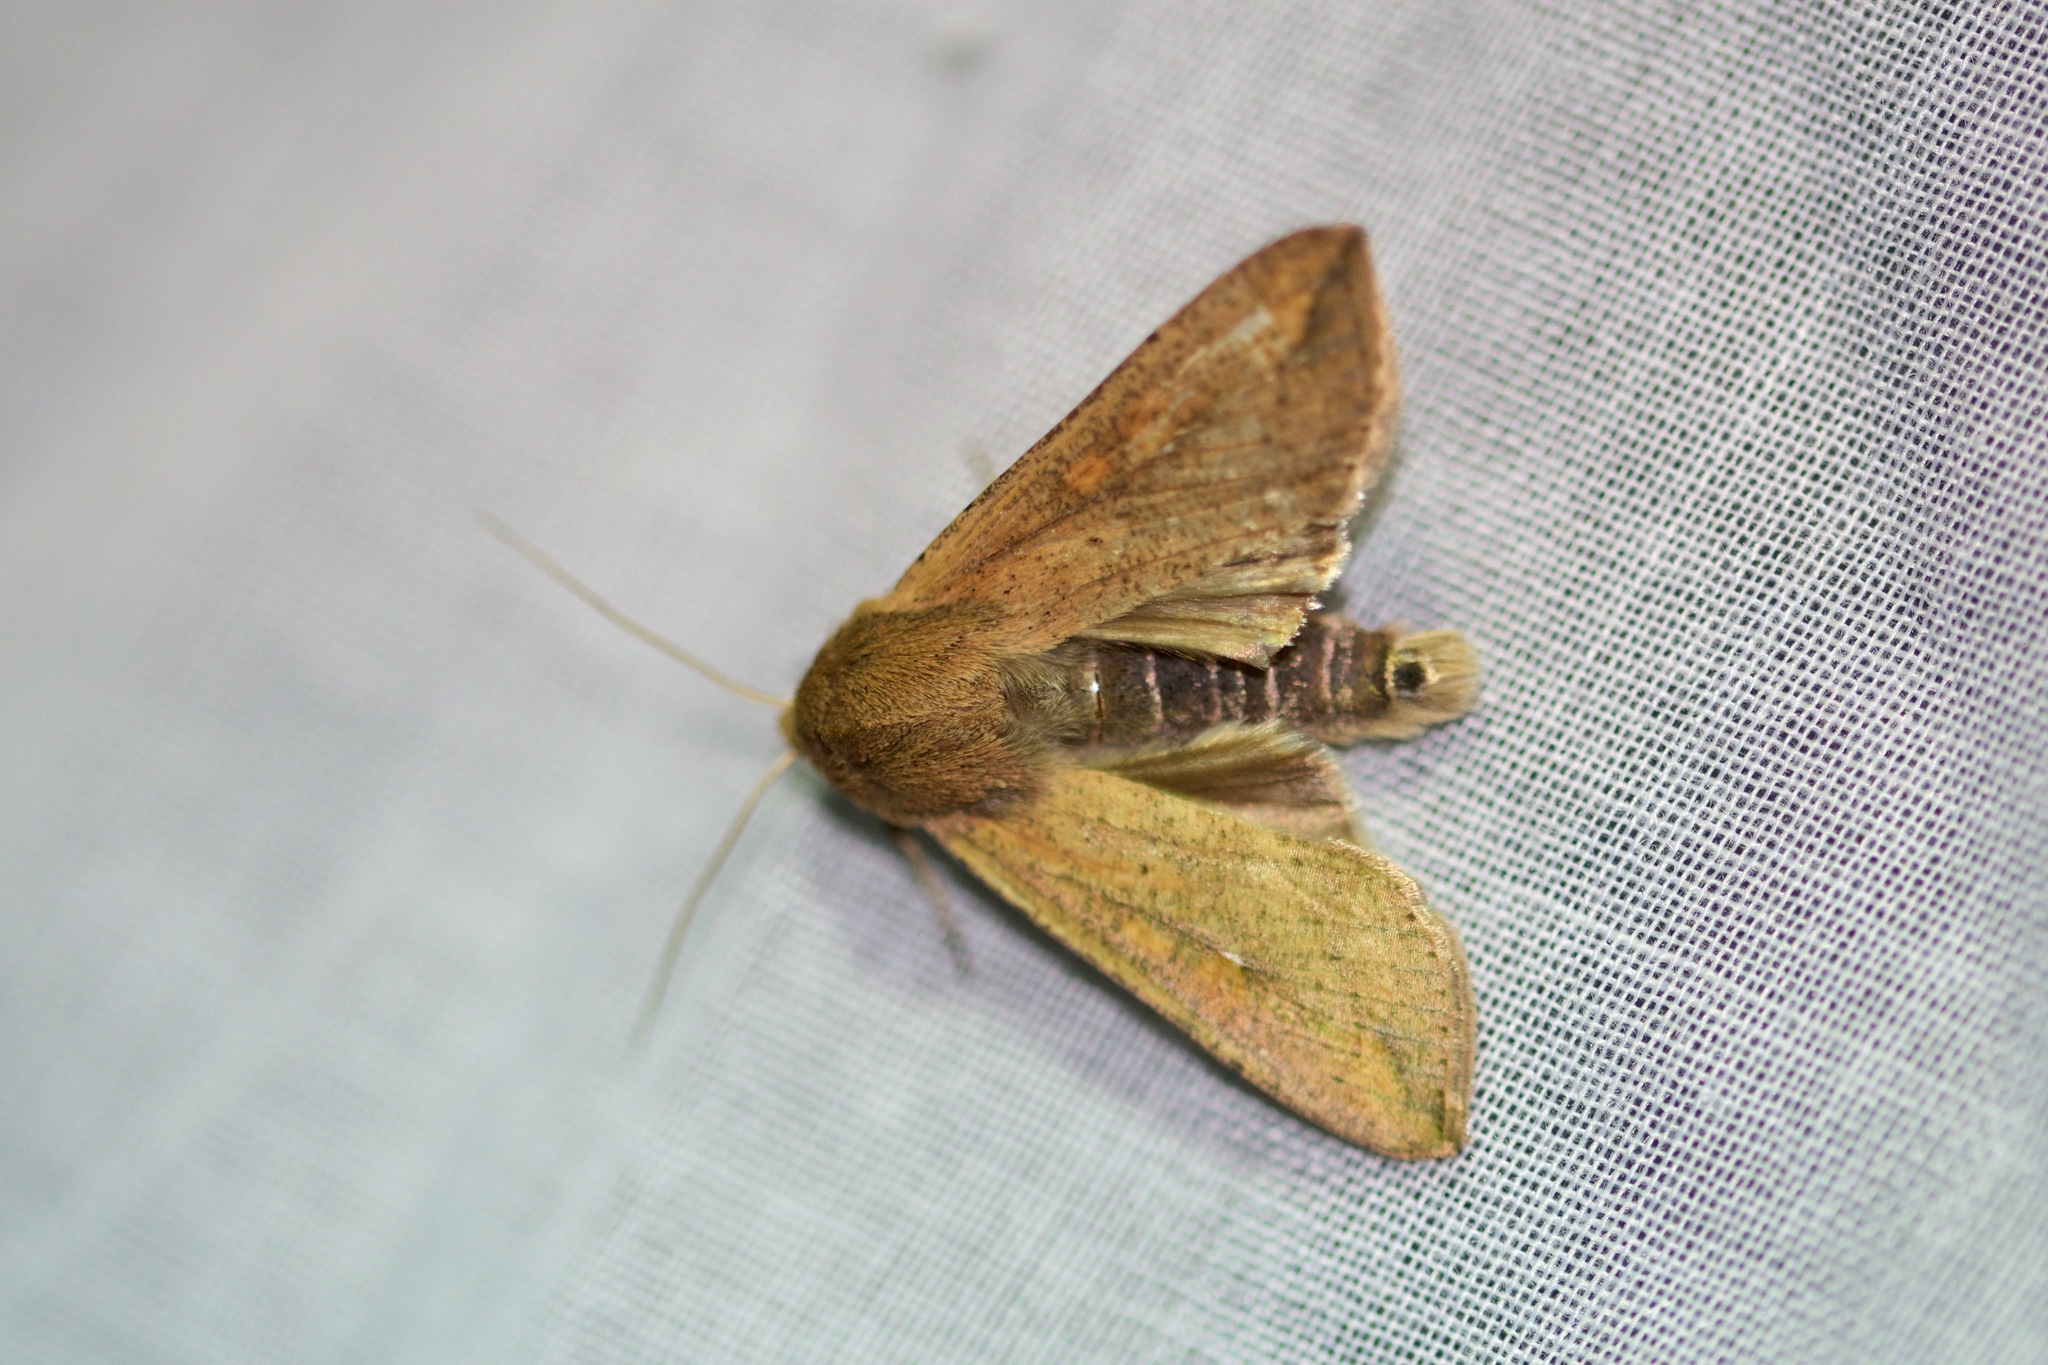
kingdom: Animalia
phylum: Arthropoda
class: Insecta
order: Lepidoptera
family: Noctuidae
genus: Mythimna
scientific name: Mythimna unipuncta
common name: White-speck
